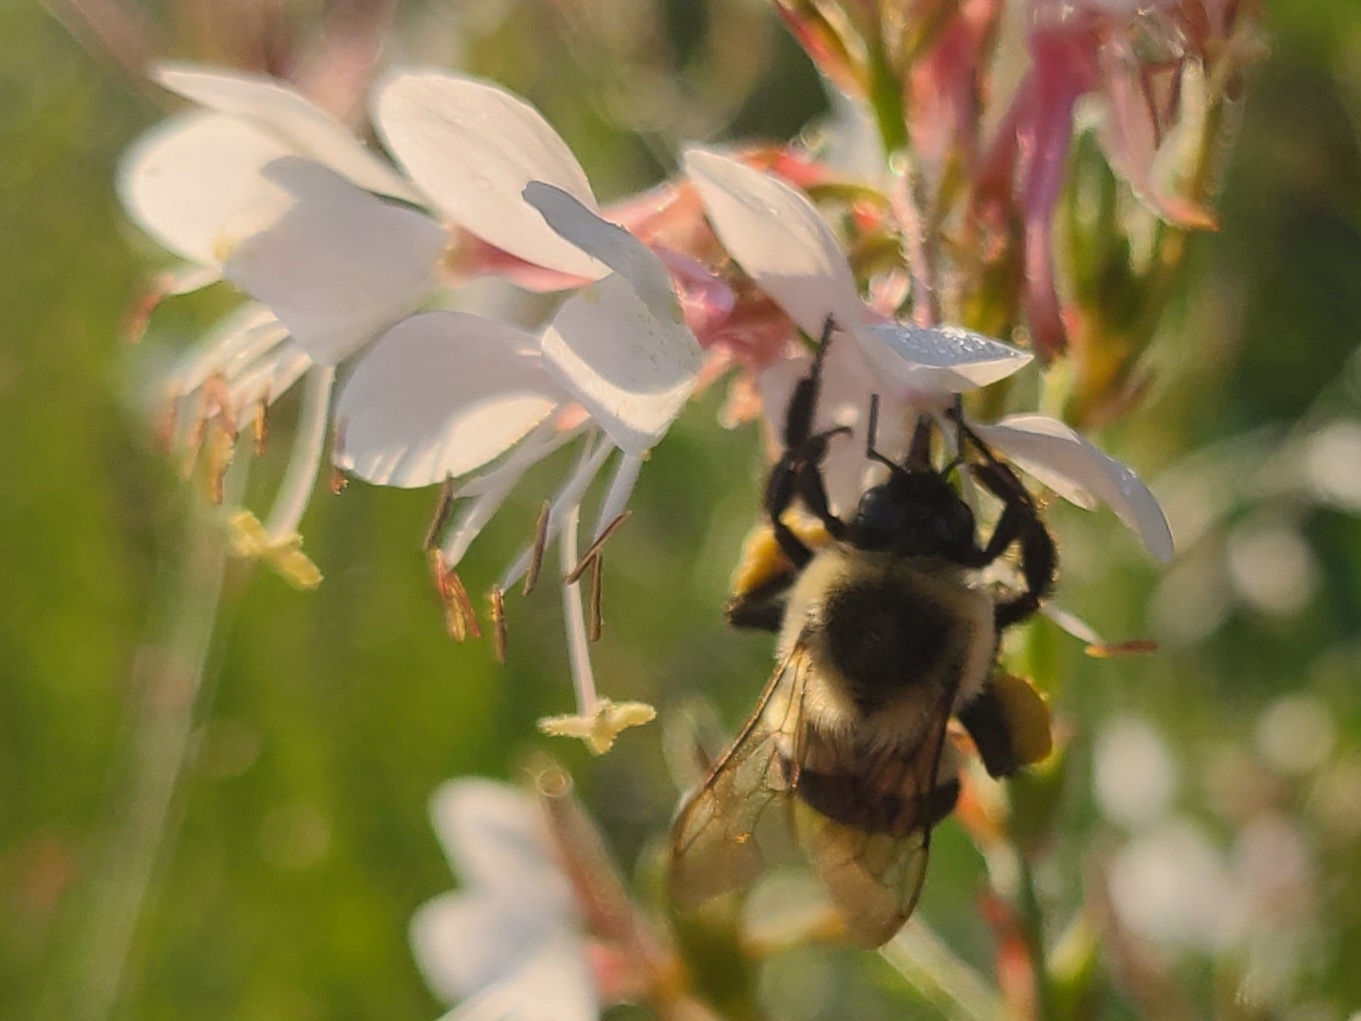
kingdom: Animalia
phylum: Arthropoda
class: Insecta
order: Hymenoptera
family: Apidae
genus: Bombus
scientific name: Bombus impatiens
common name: Common eastern bumble bee
